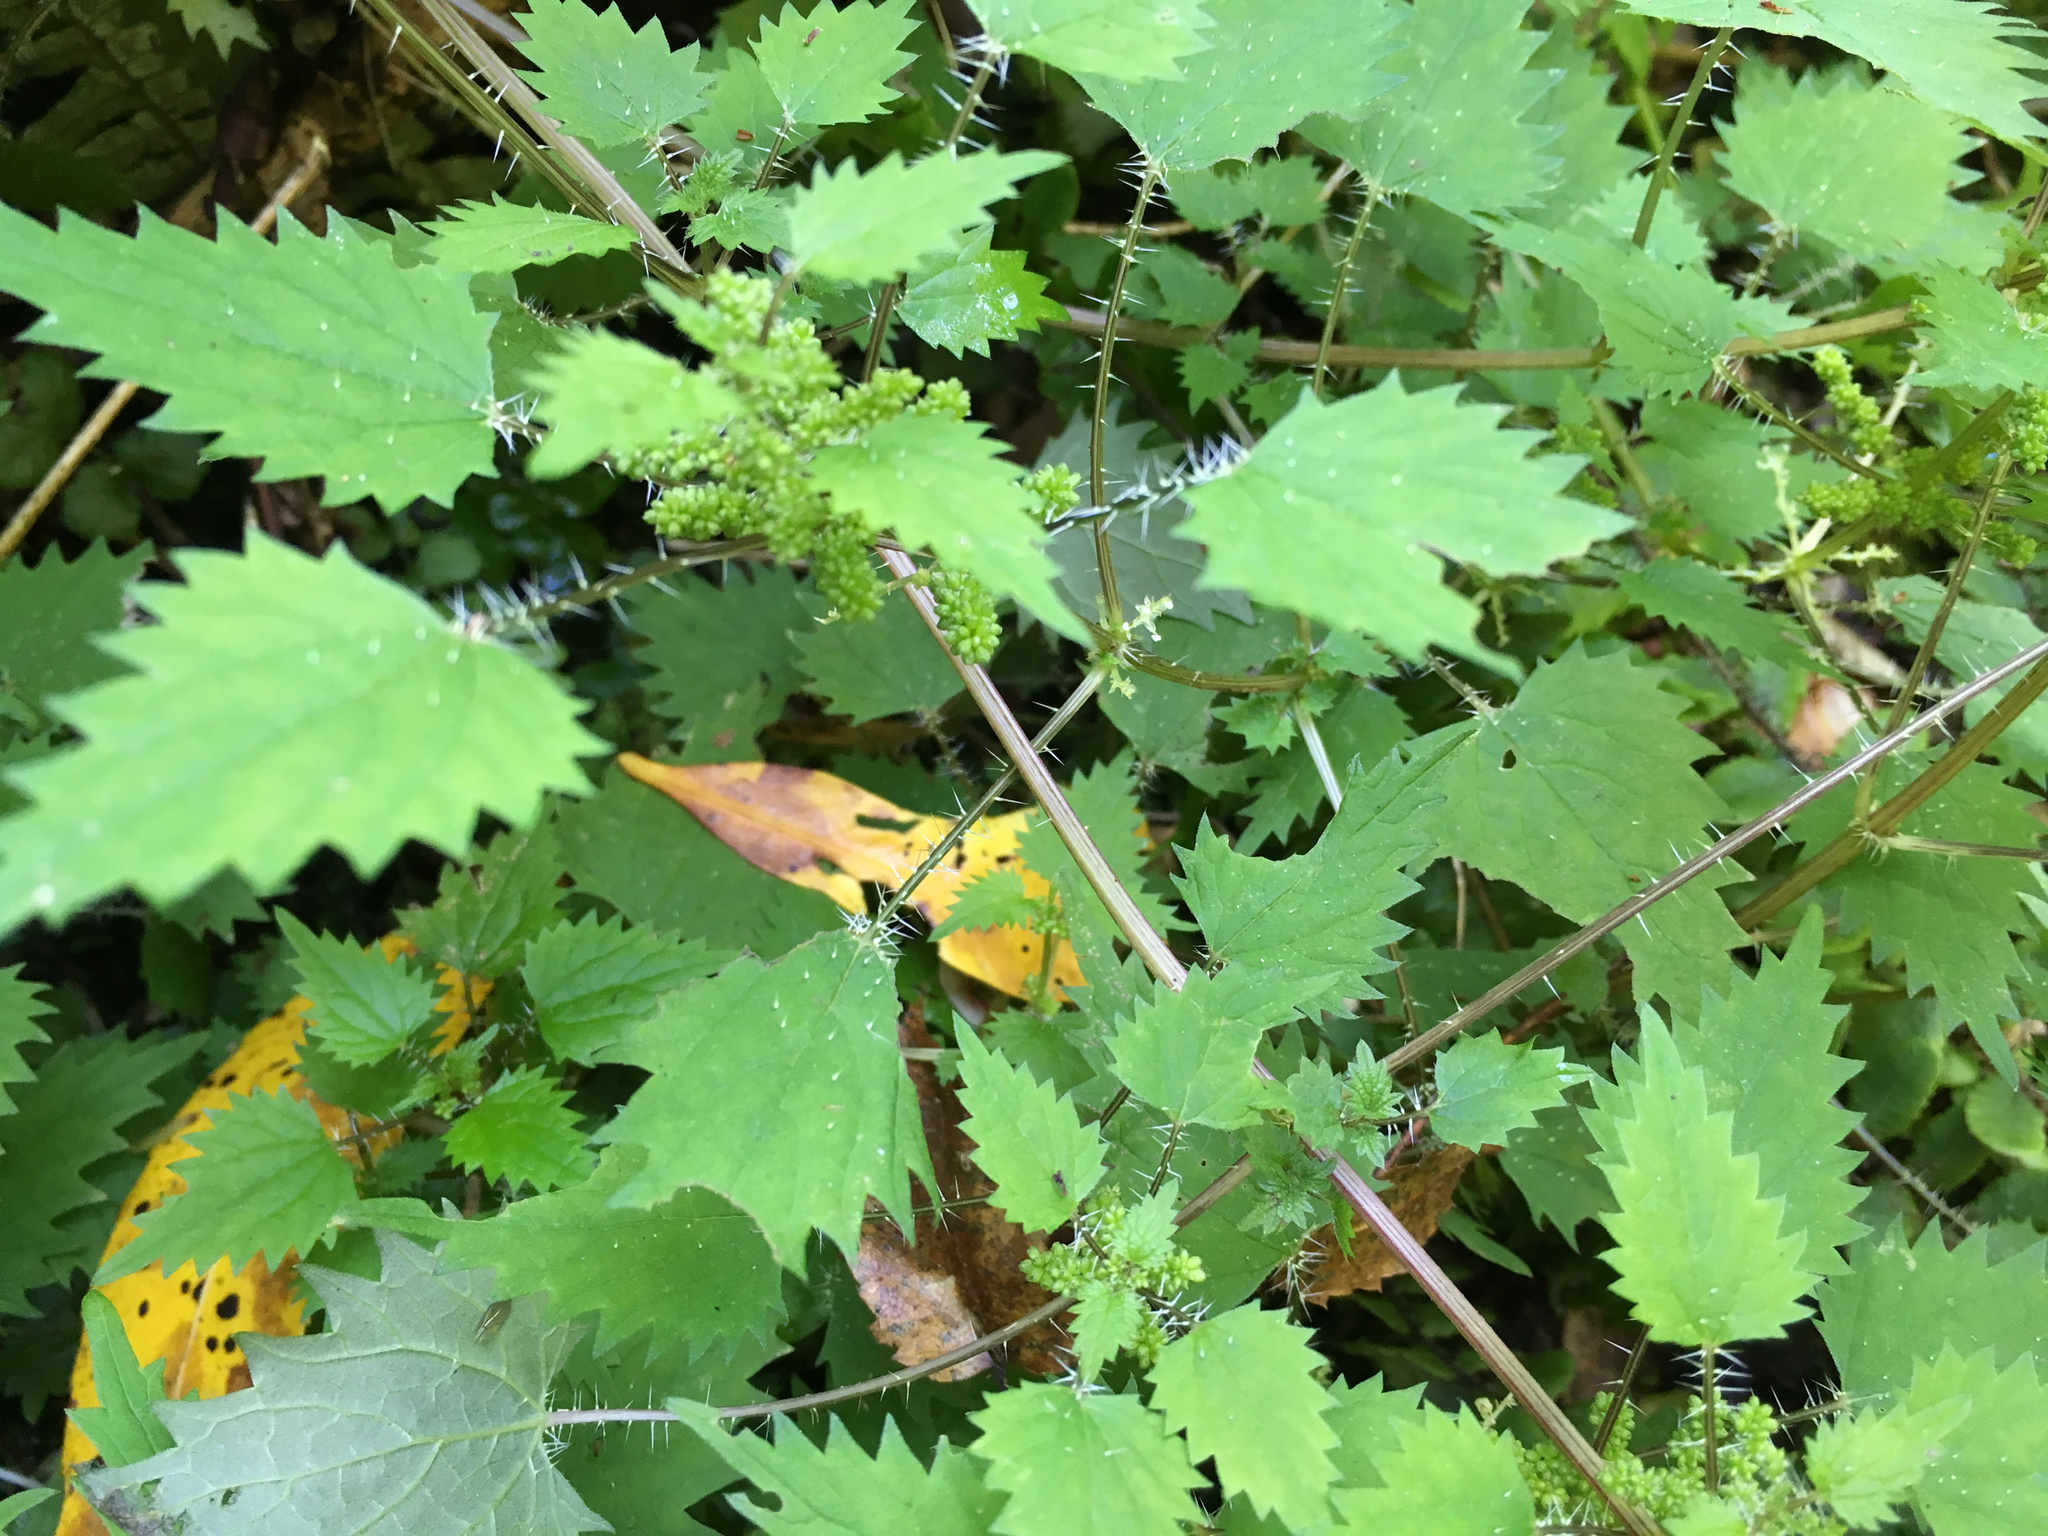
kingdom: Plantae
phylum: Tracheophyta
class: Magnoliopsida
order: Rosales
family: Urticaceae
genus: Urtica
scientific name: Urtica sykesii
